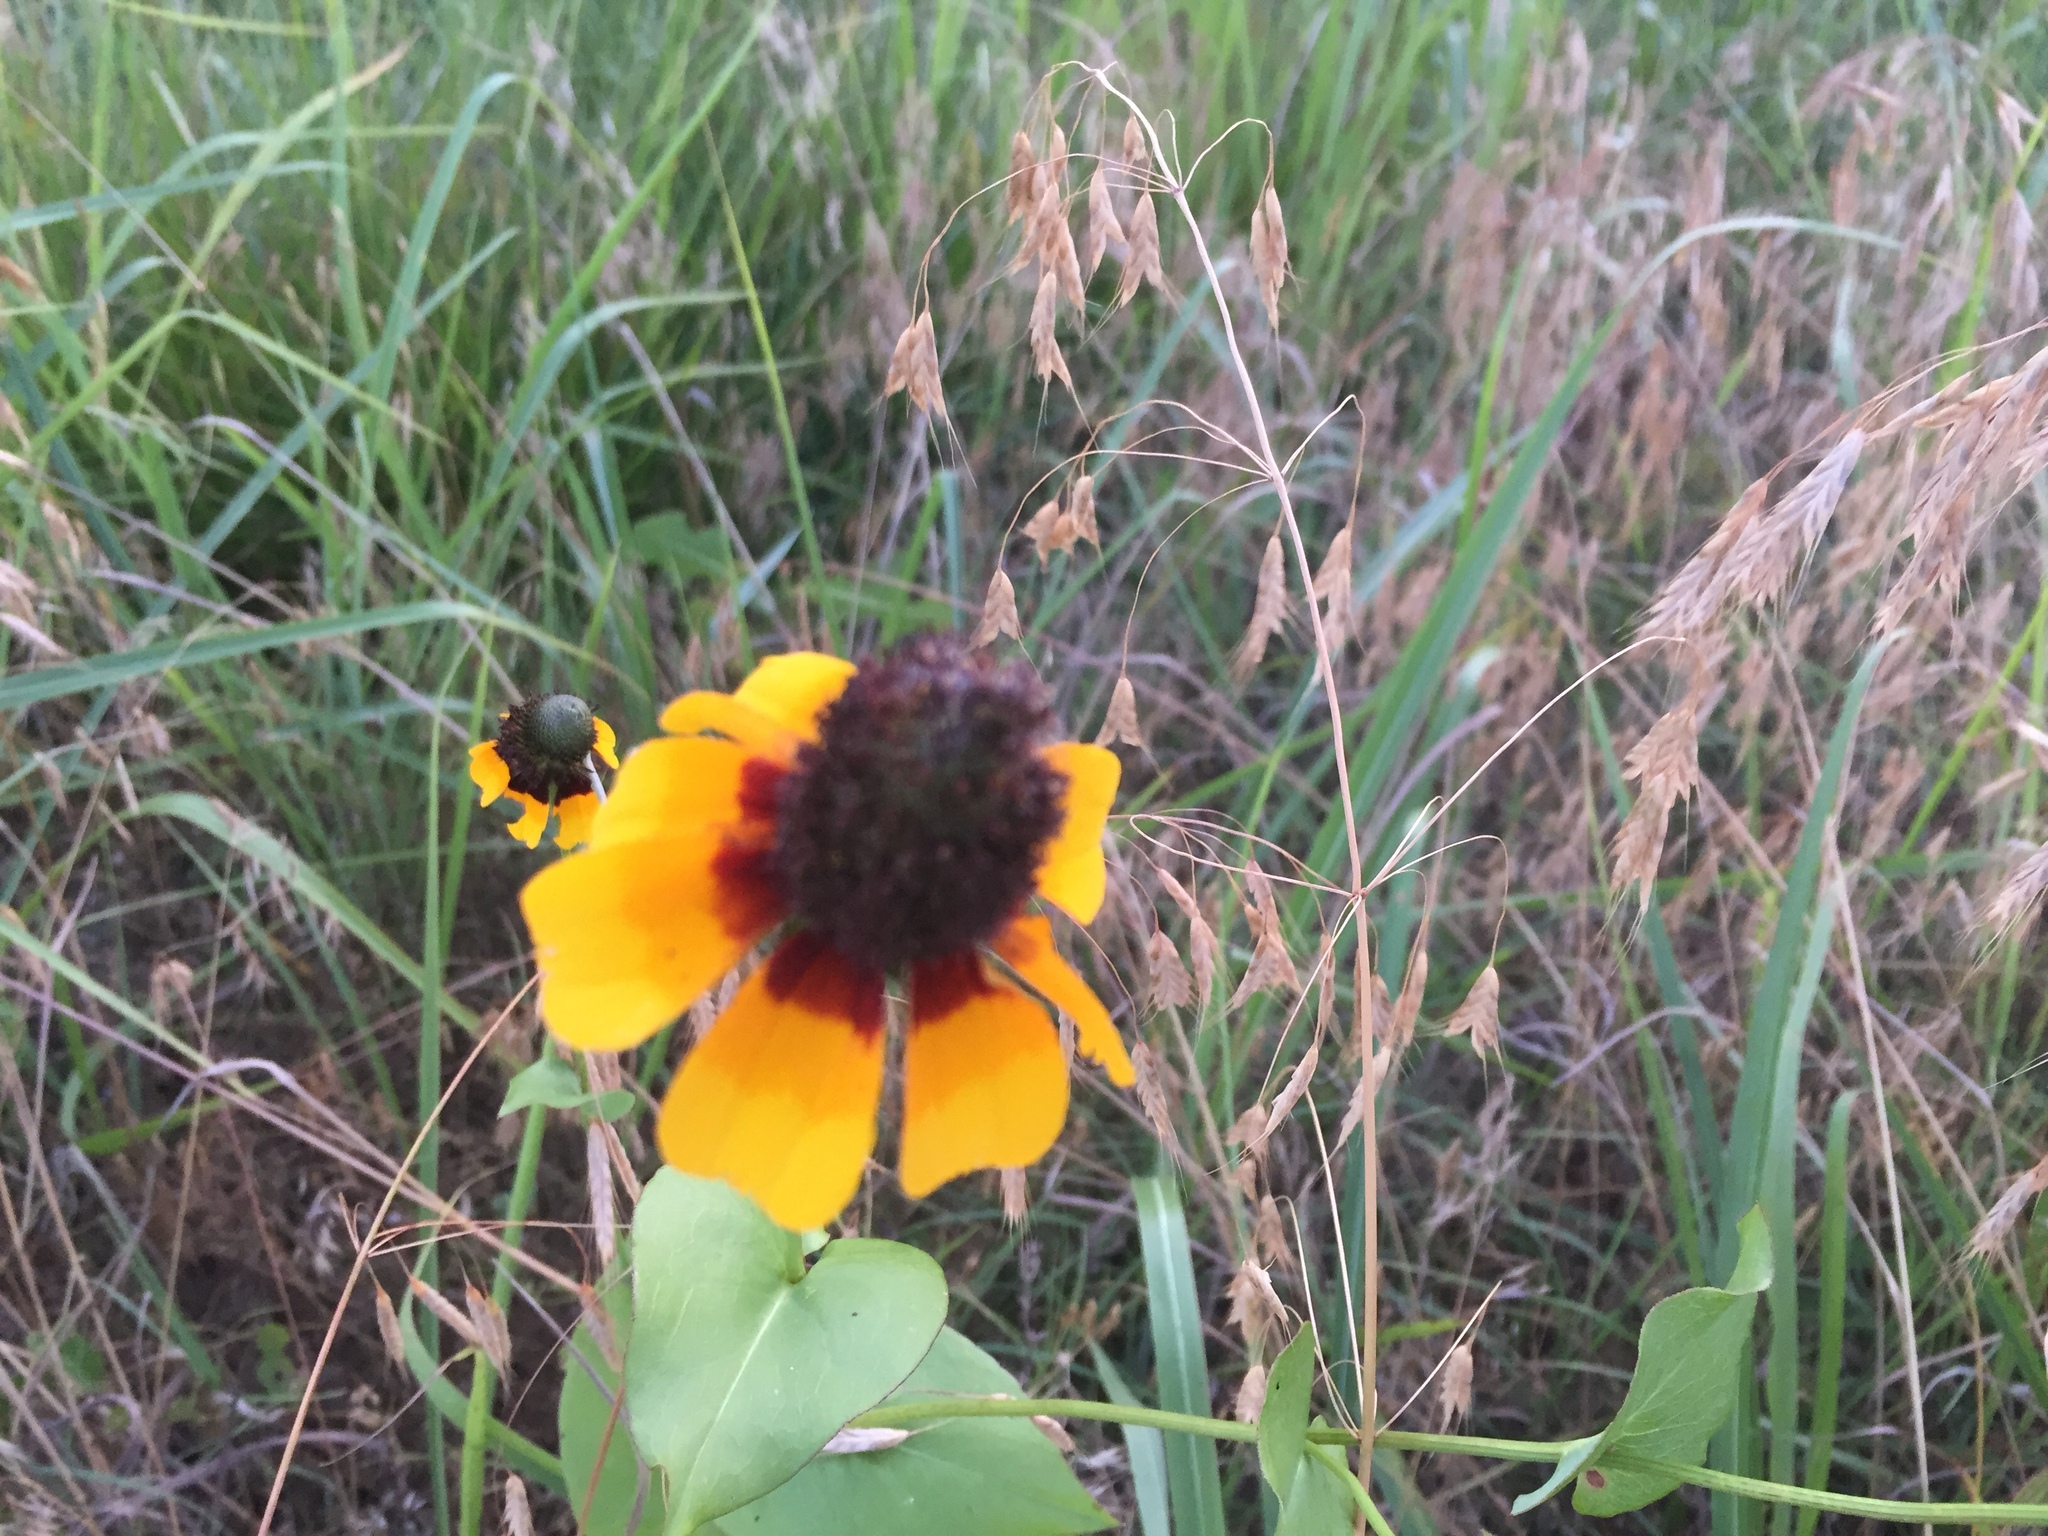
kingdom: Plantae
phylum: Tracheophyta
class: Magnoliopsida
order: Asterales
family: Asteraceae
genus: Rudbeckia
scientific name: Rudbeckia amplexicaulis
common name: Clasping-leaf coneflower
